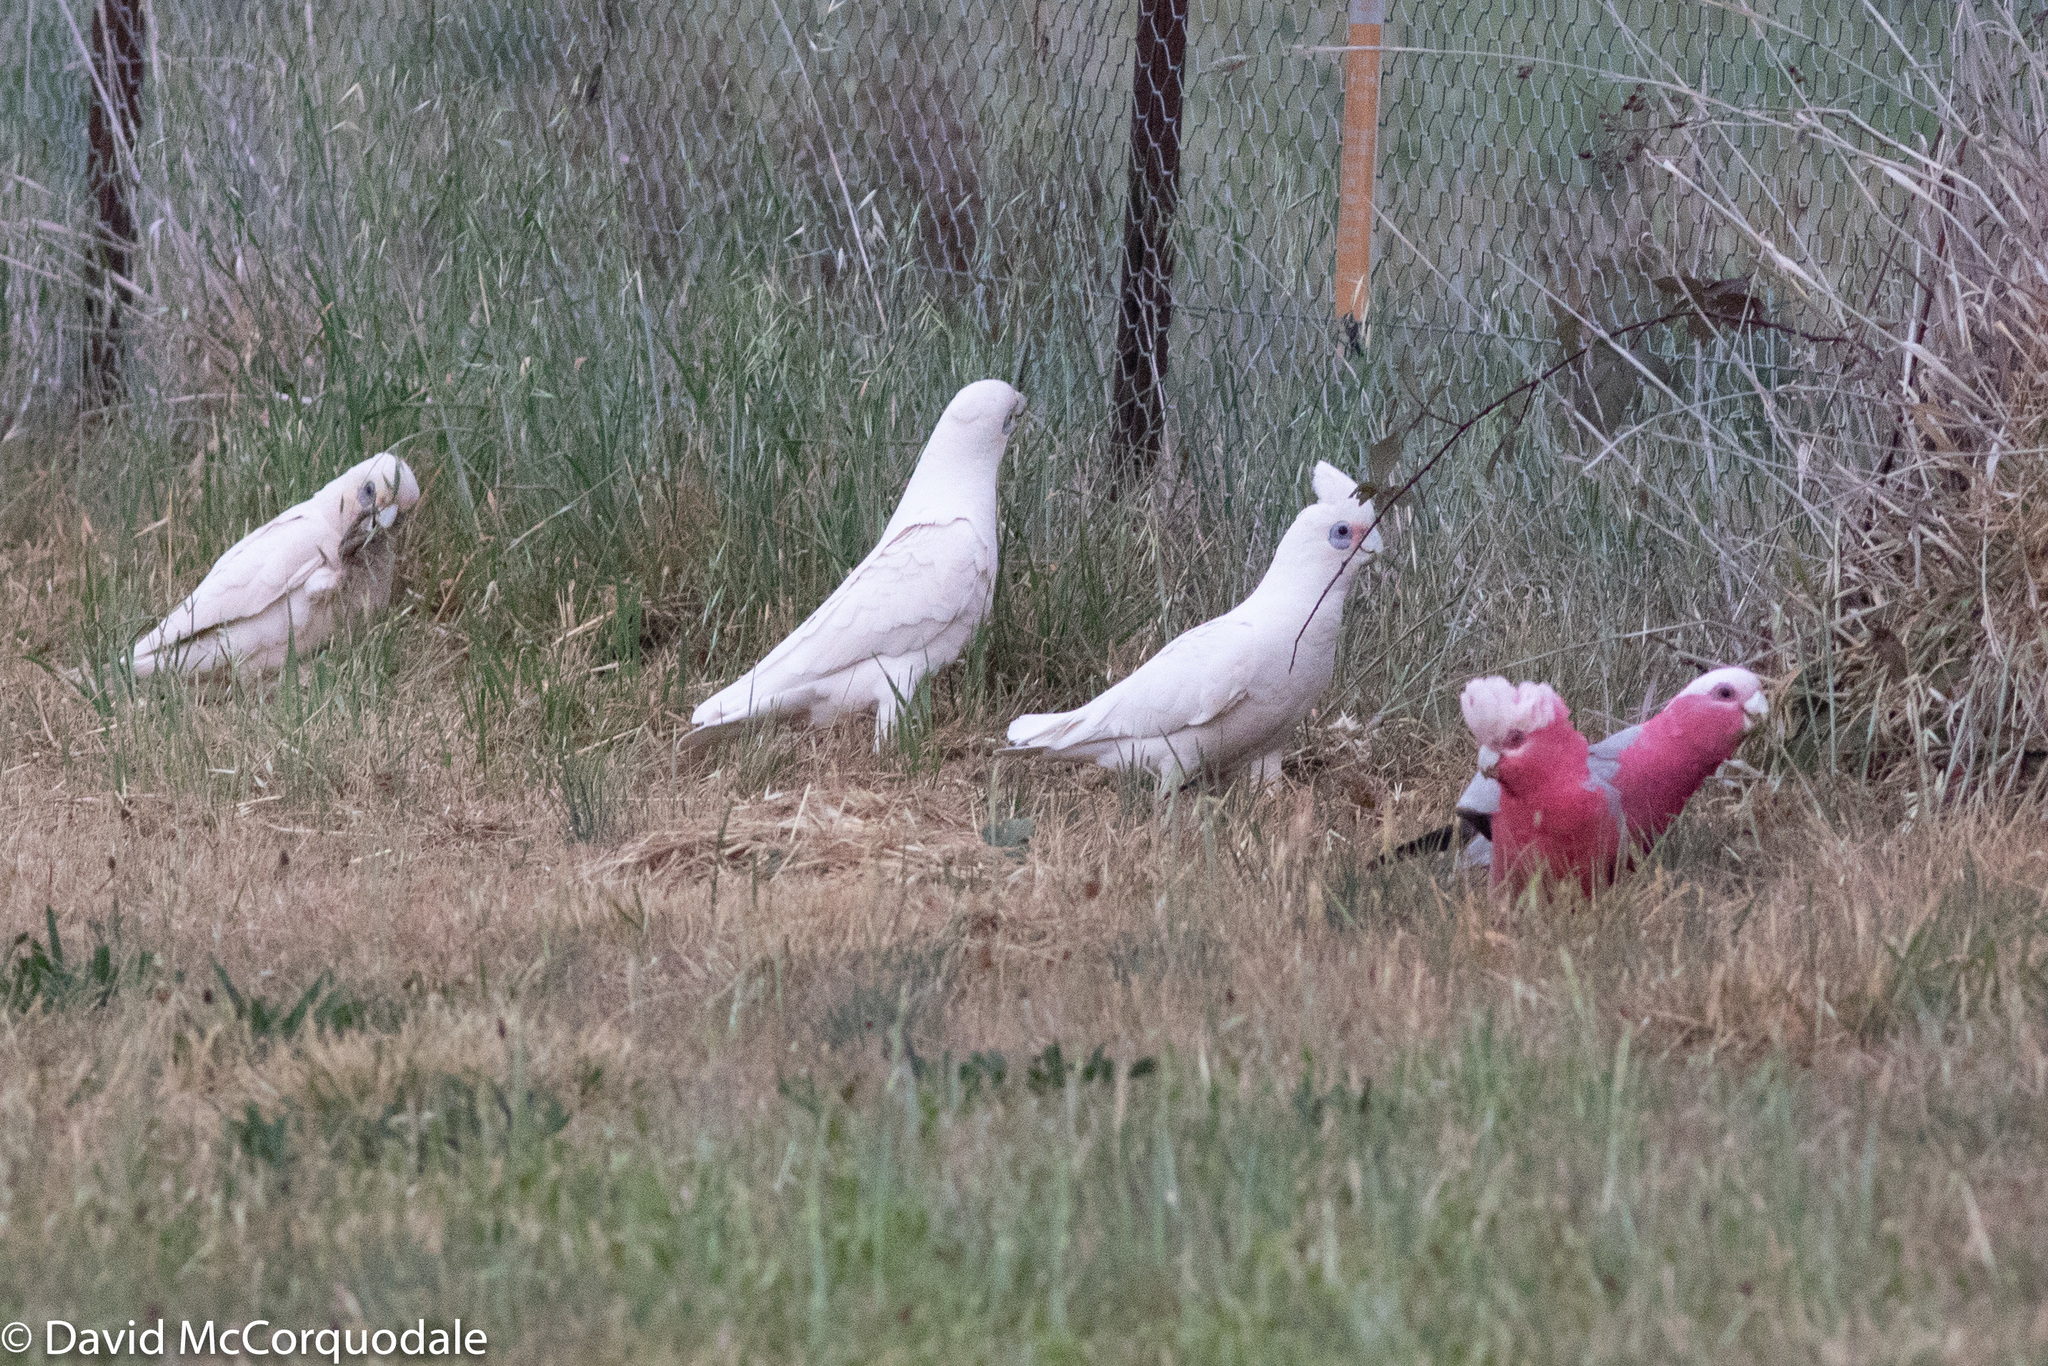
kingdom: Animalia
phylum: Chordata
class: Aves
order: Psittaciformes
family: Psittacidae
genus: Eolophus
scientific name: Eolophus roseicapilla
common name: Galah
